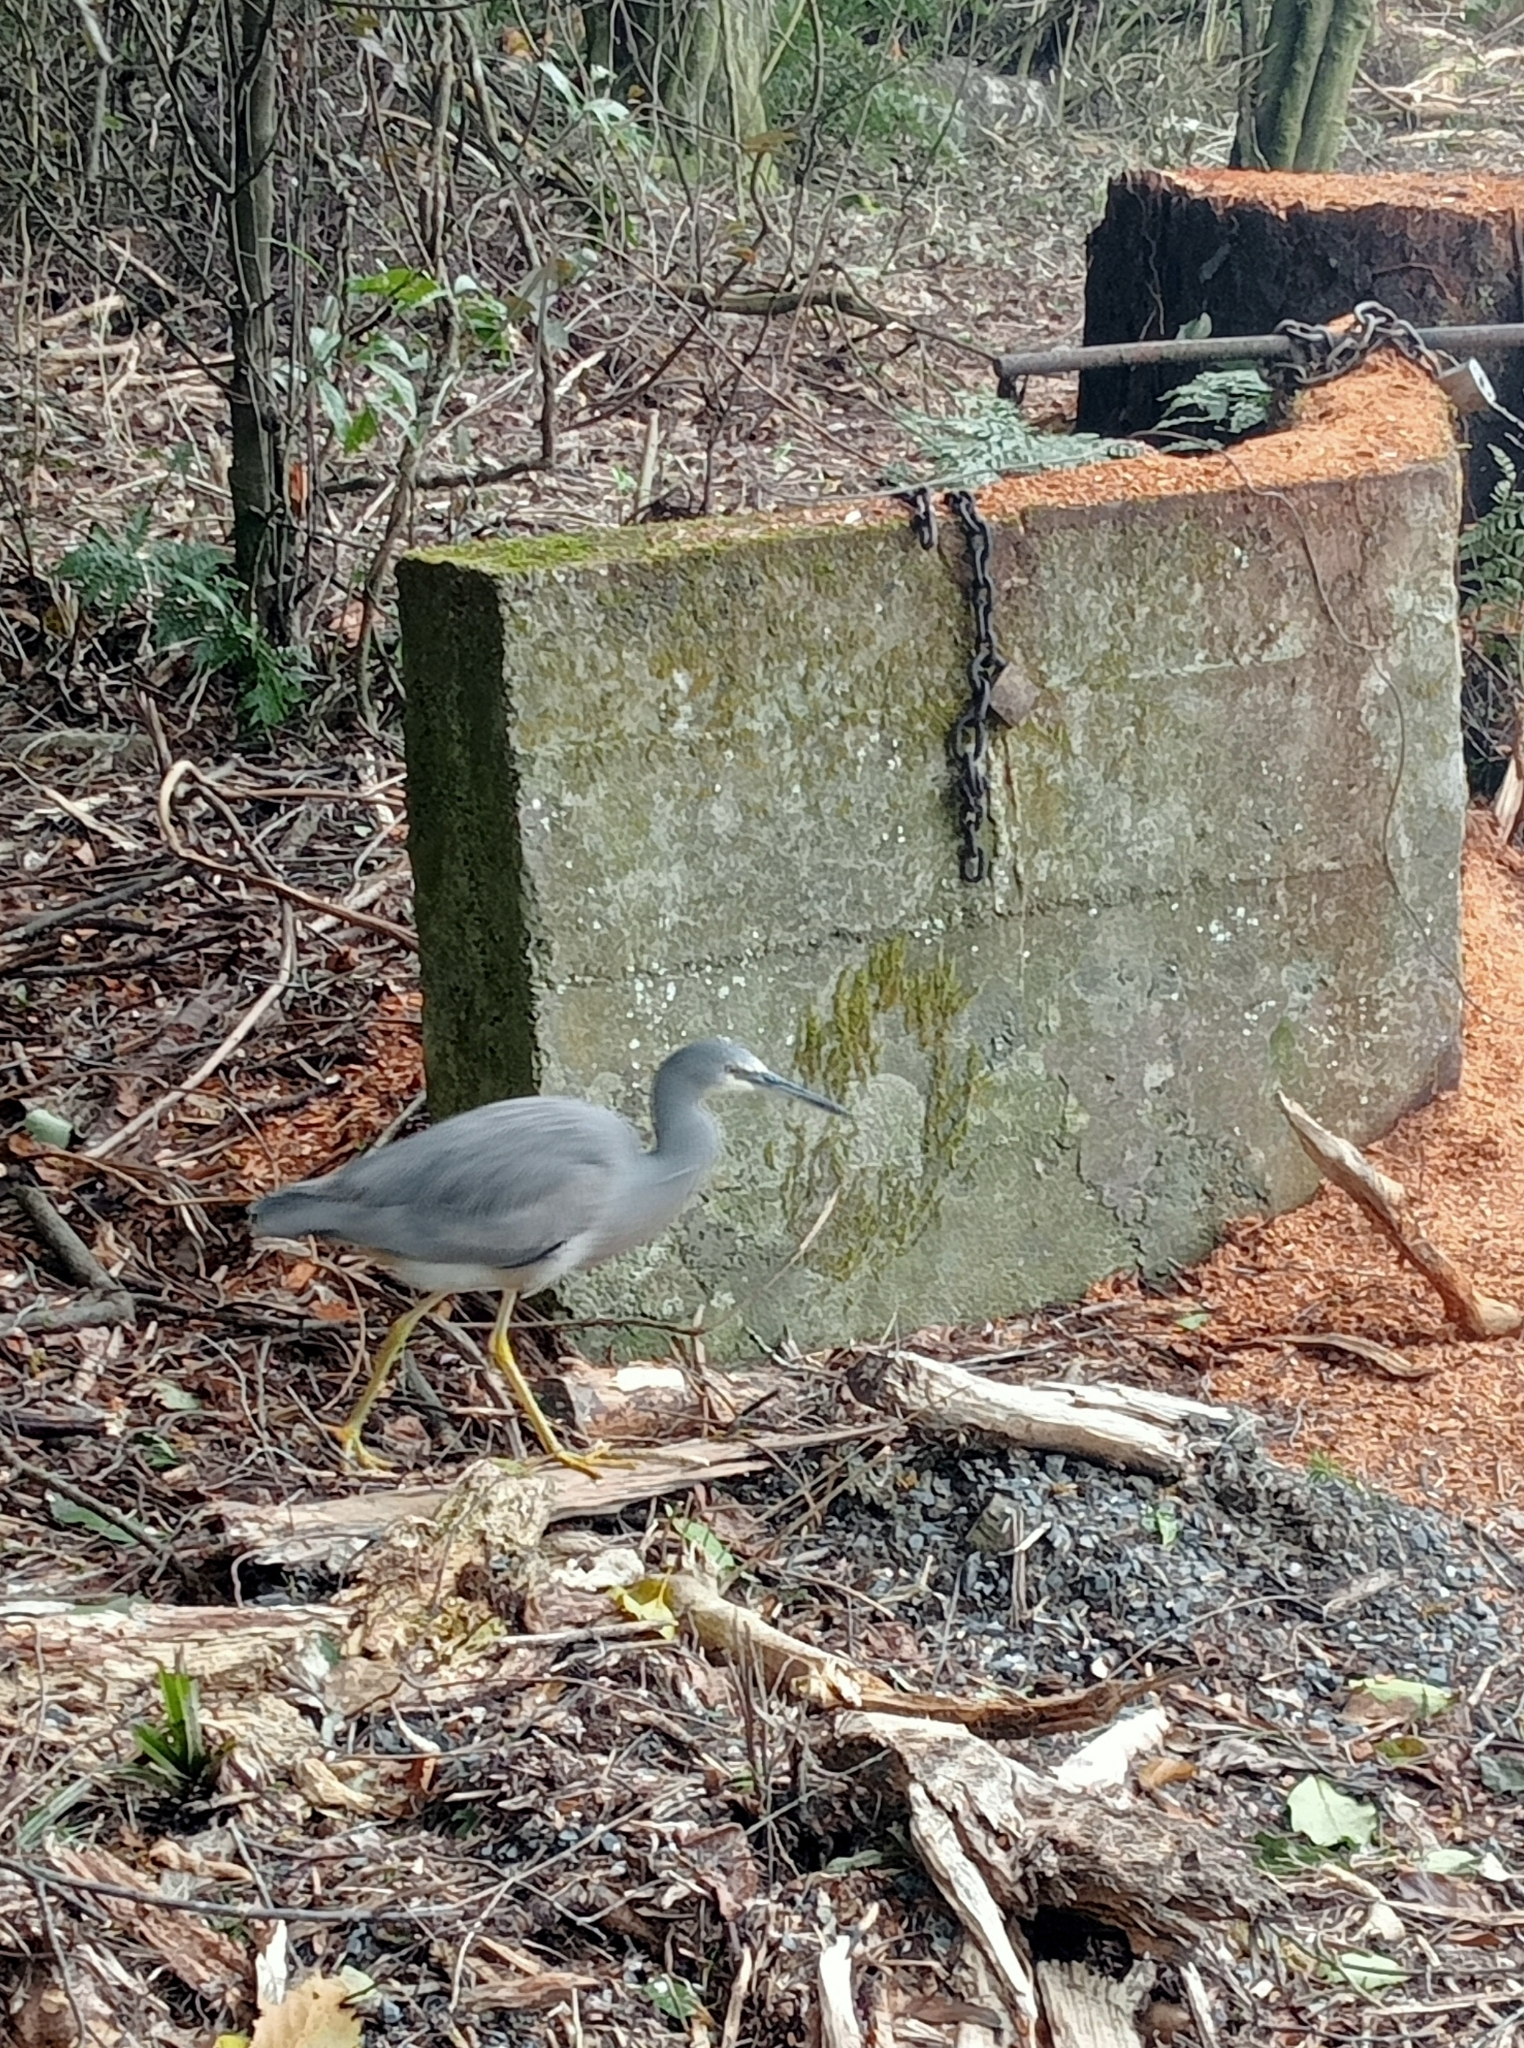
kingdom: Animalia
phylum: Chordata
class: Aves
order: Pelecaniformes
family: Ardeidae
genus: Egretta
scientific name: Egretta novaehollandiae
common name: White-faced heron
